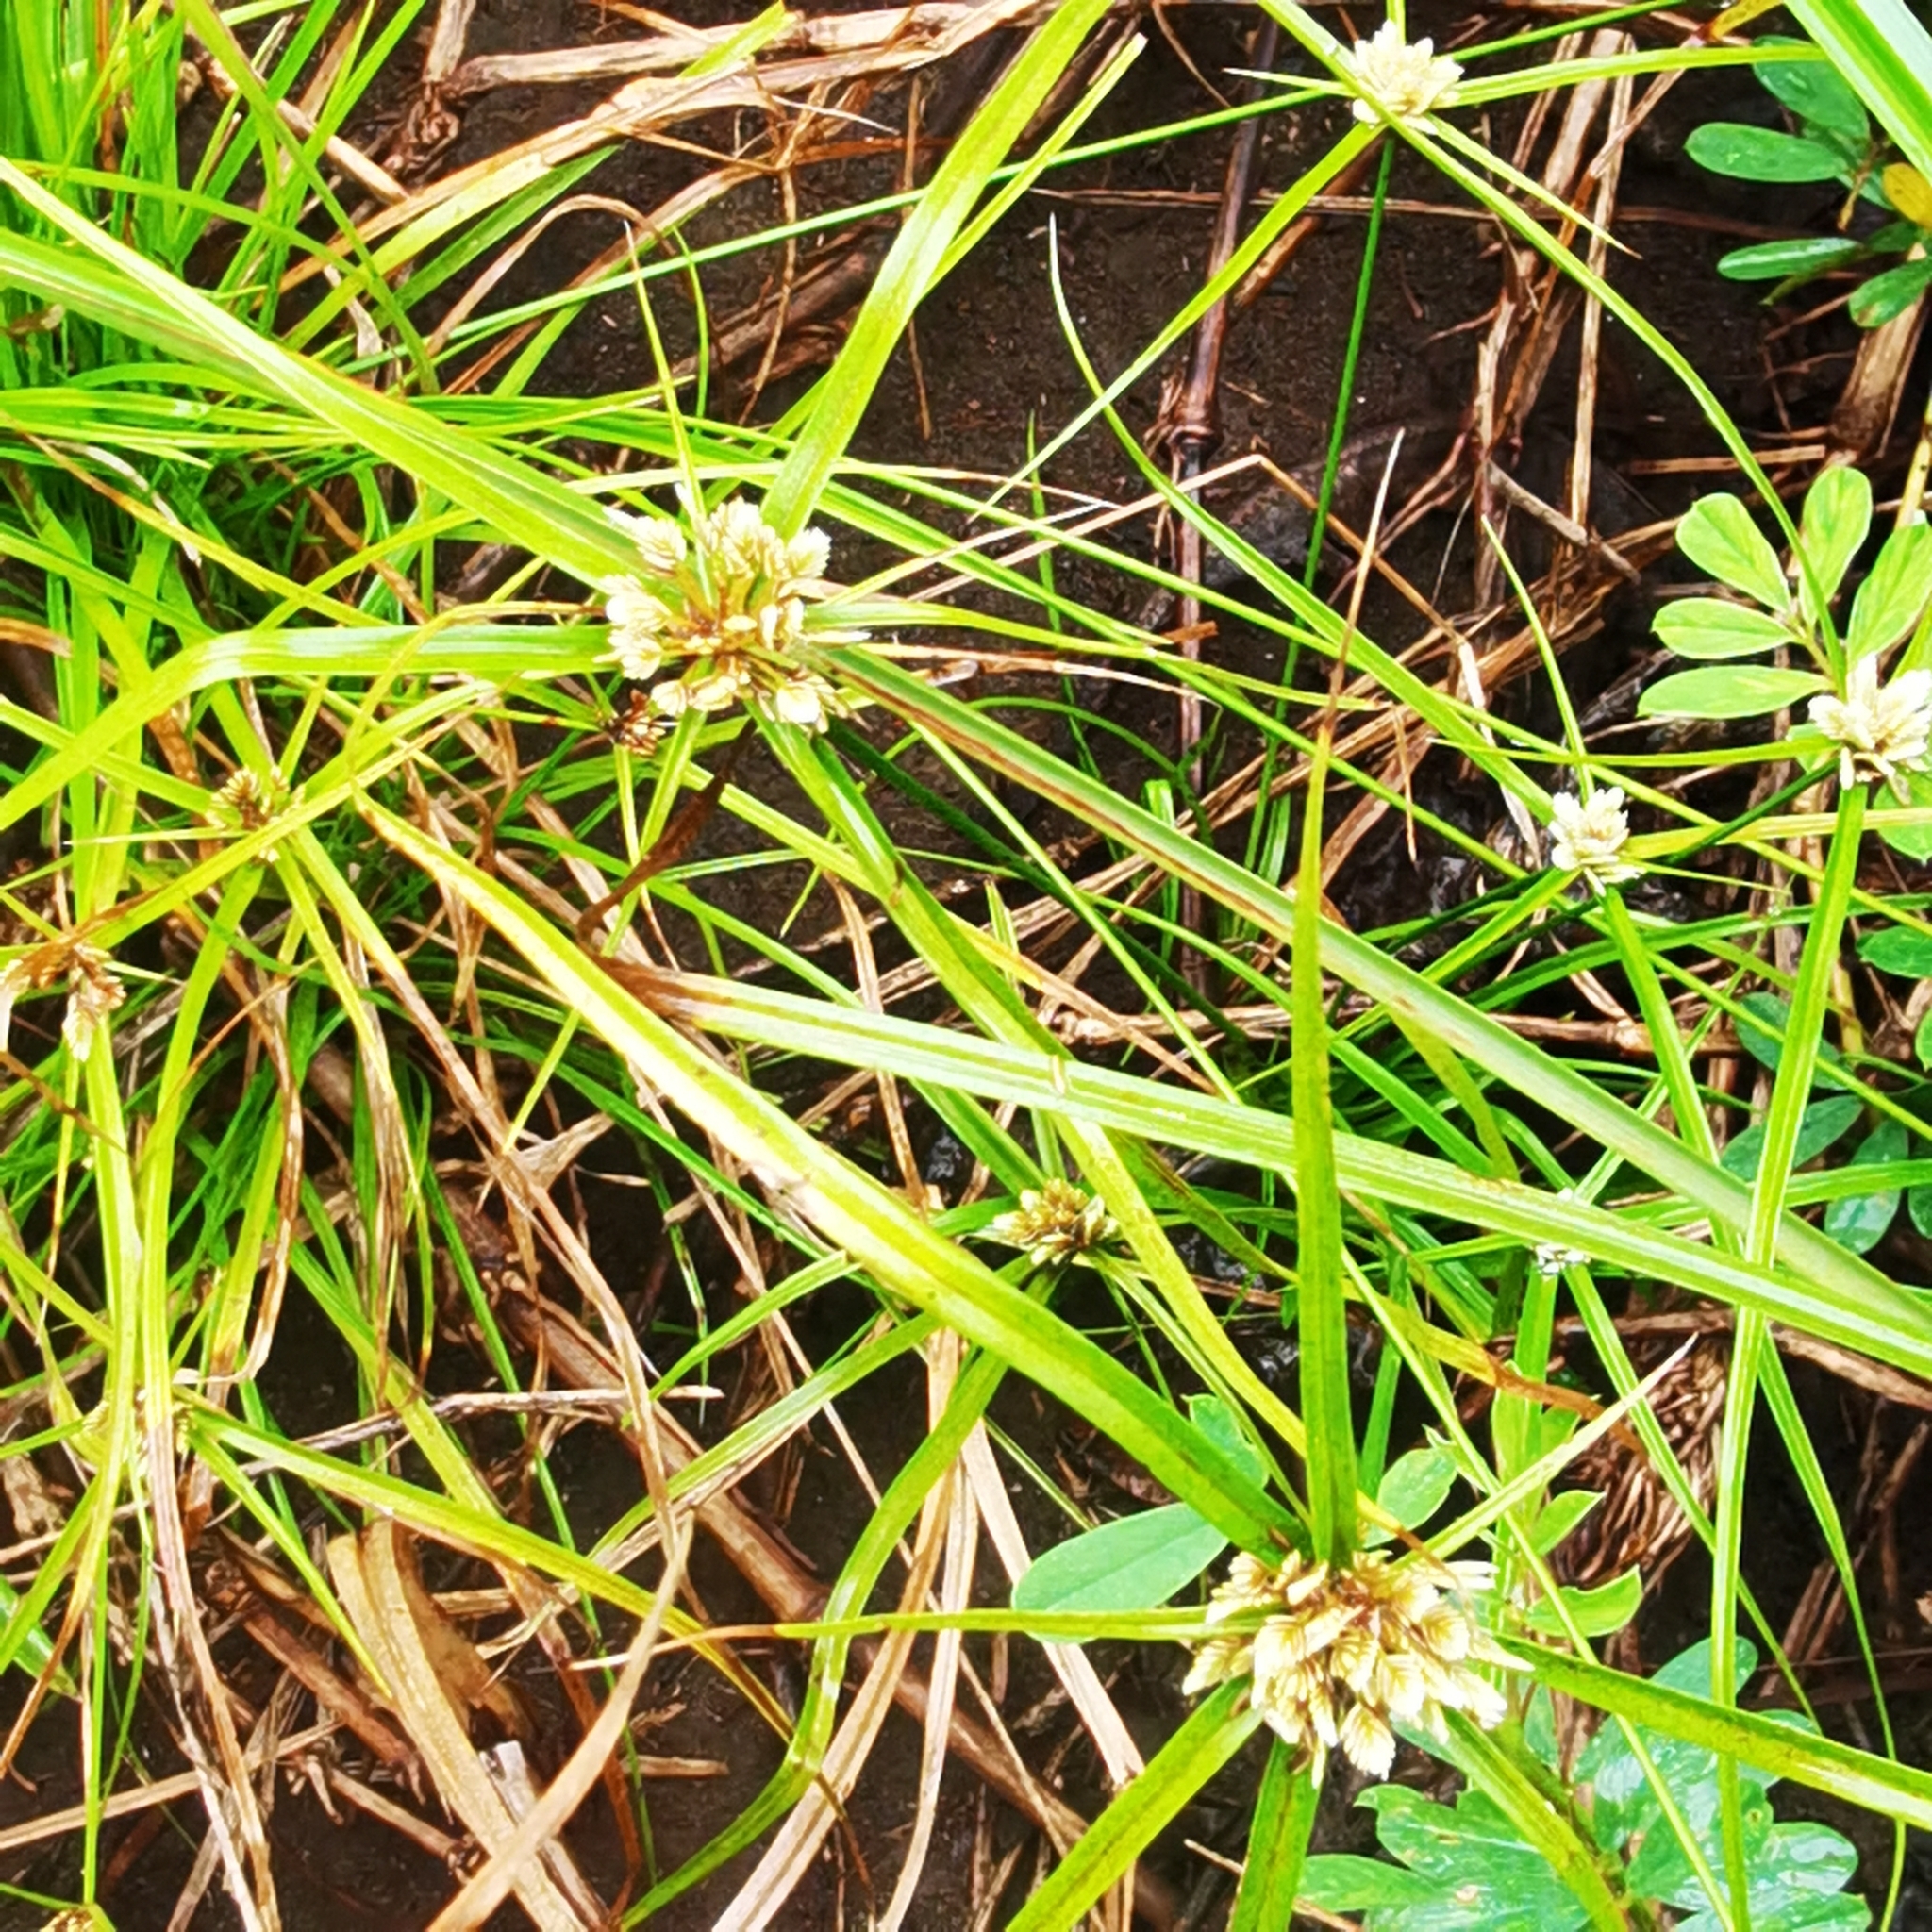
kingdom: Plantae
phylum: Tracheophyta
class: Liliopsida
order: Poales
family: Cyperaceae
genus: Cyperus
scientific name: Cyperus tenerrimus
